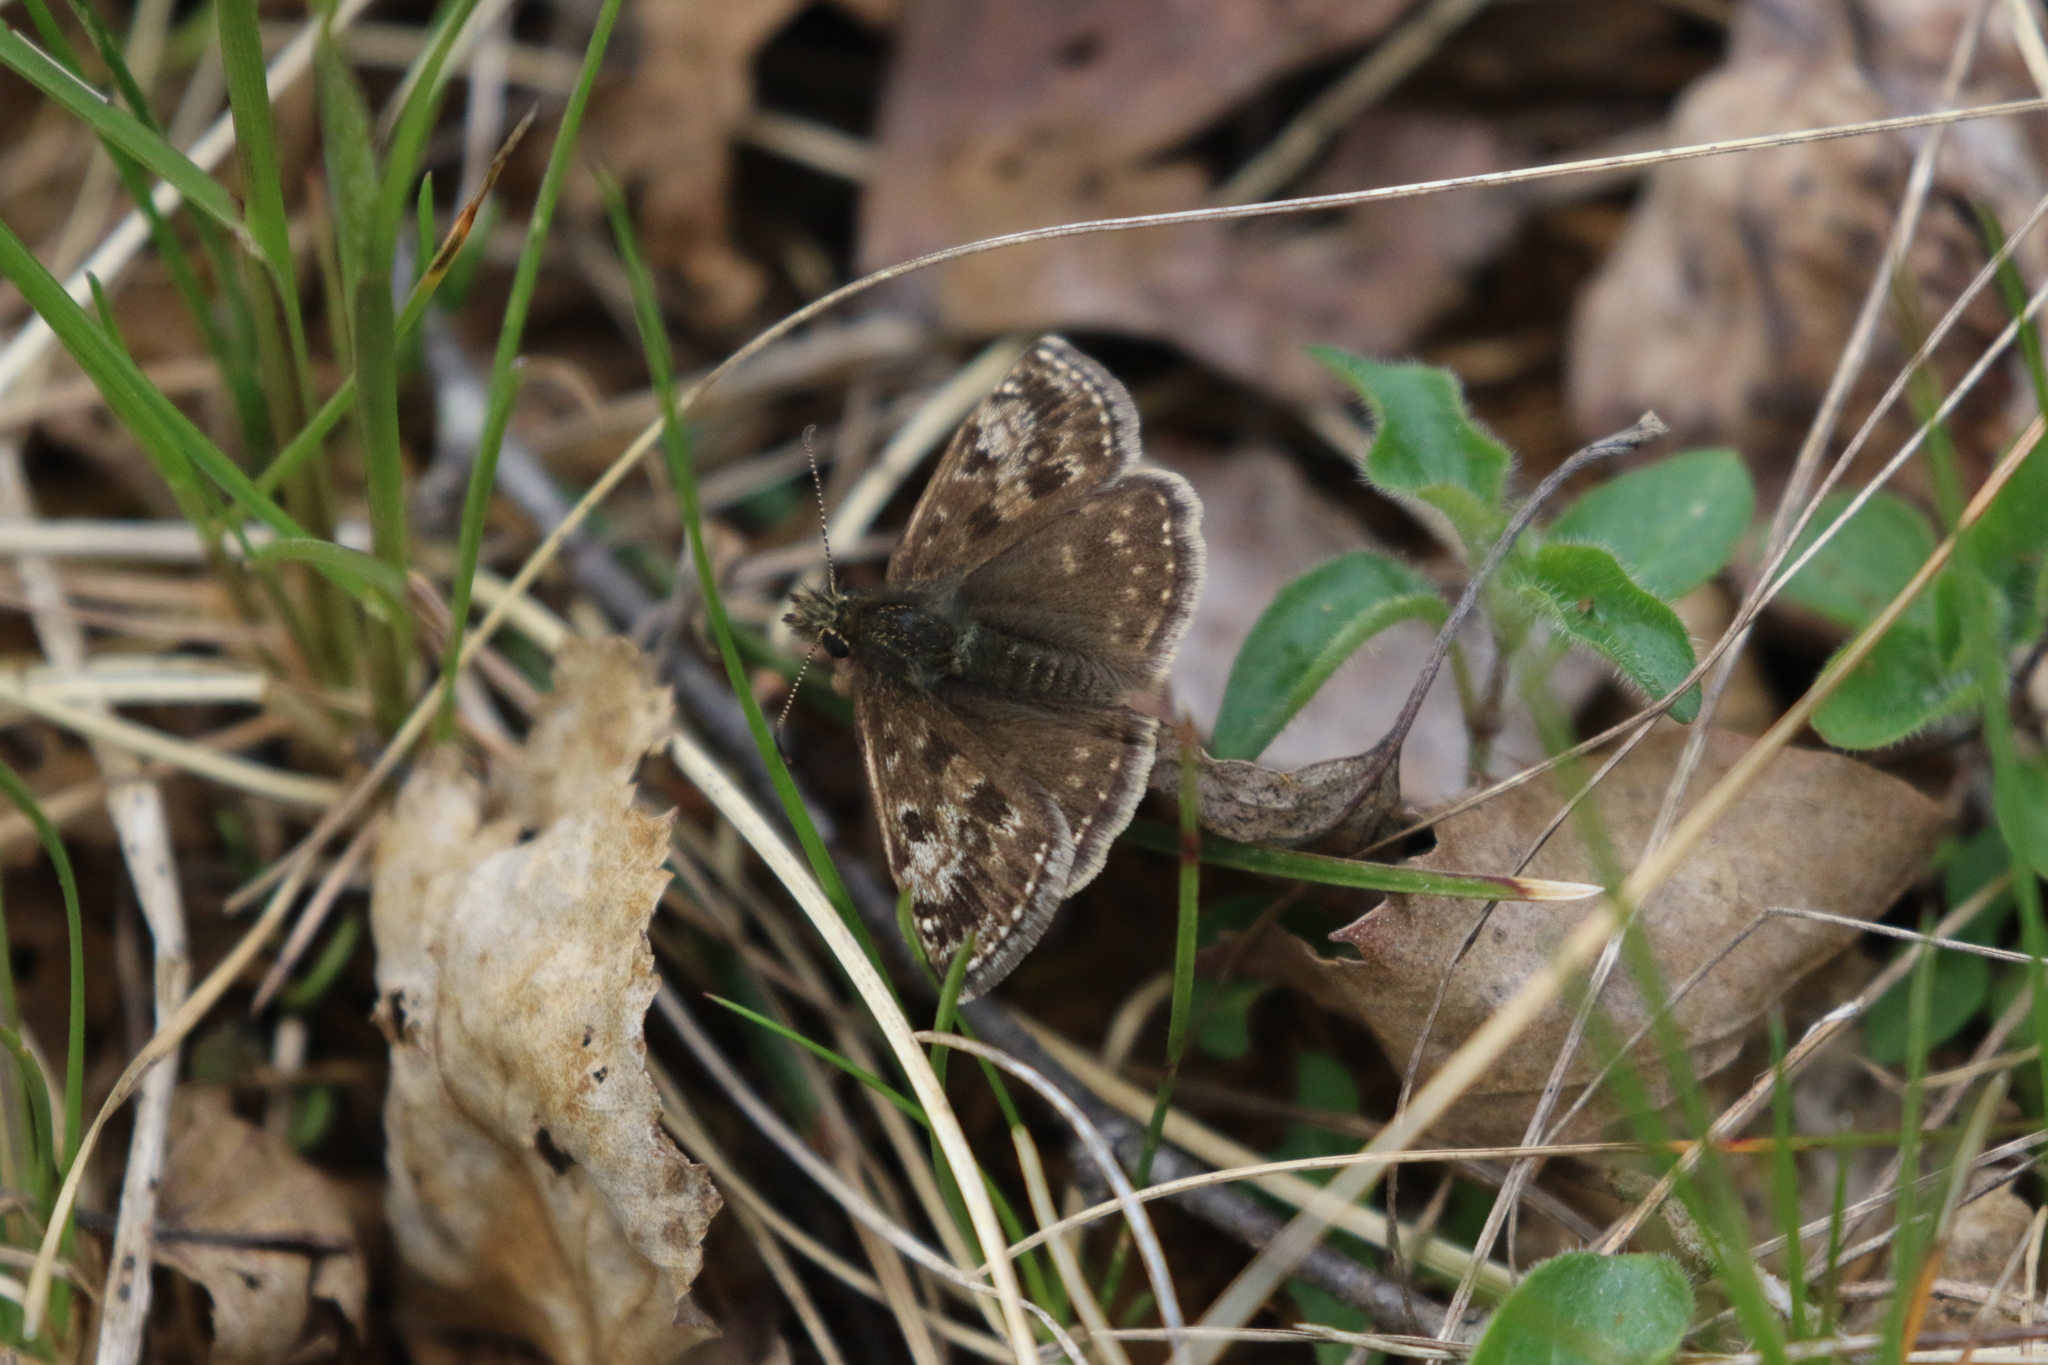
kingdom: Animalia
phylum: Arthropoda
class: Insecta
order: Lepidoptera
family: Hesperiidae
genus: Erynnis
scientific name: Erynnis tages
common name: Dingy skipper
